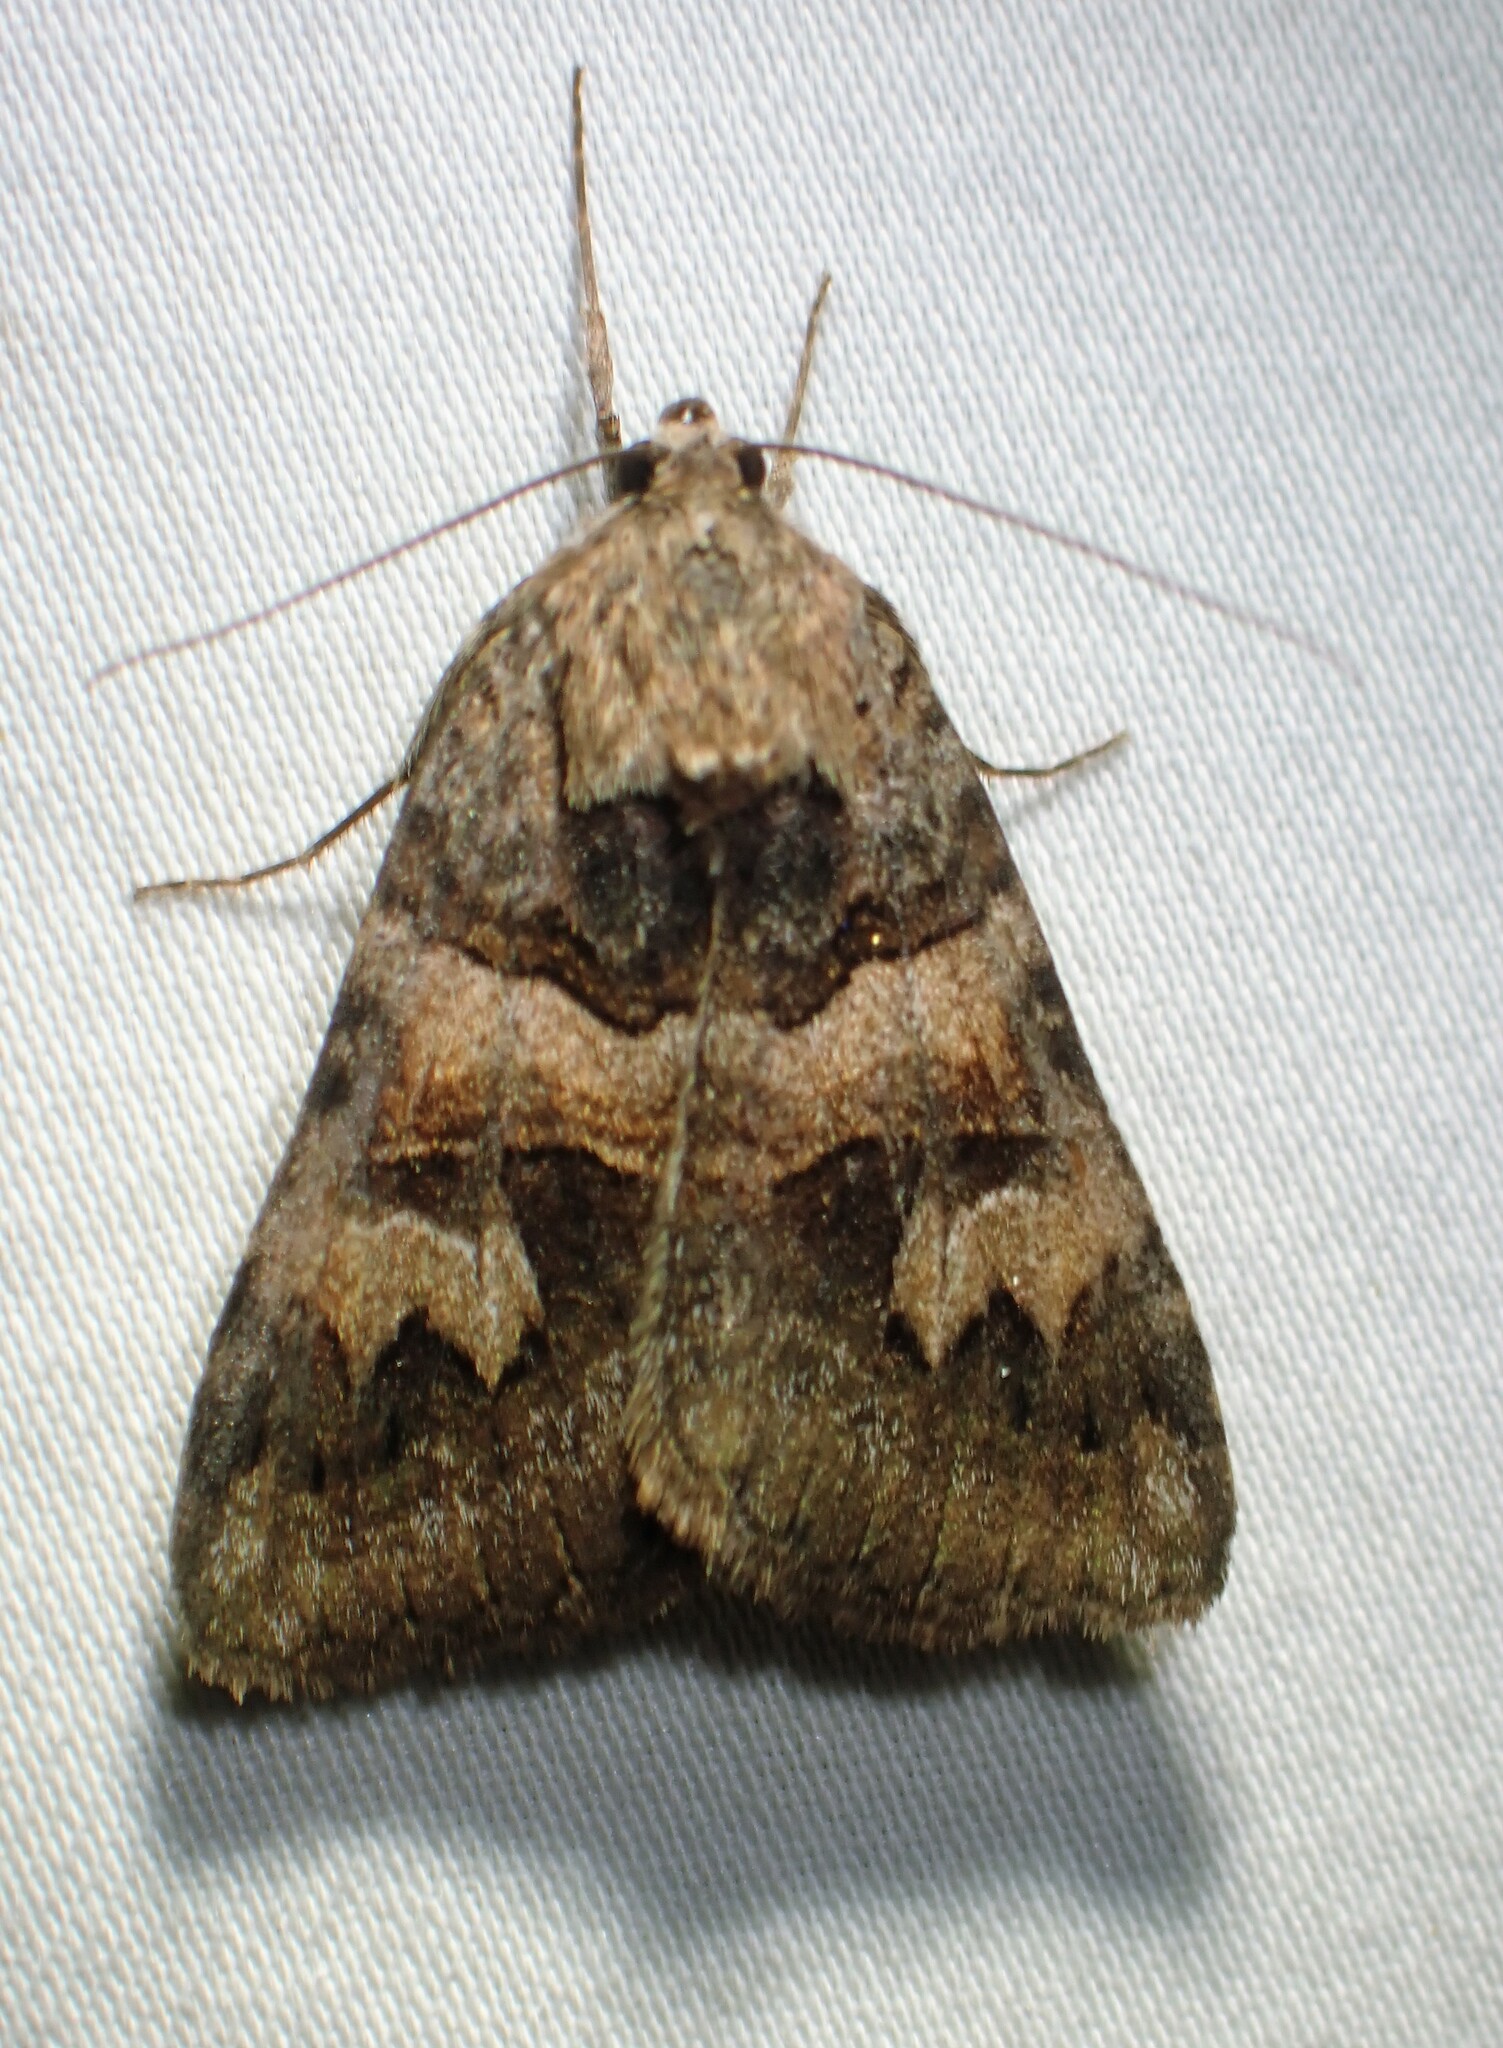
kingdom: Animalia
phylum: Arthropoda
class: Insecta
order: Lepidoptera
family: Erebidae
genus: Drasteria
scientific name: Drasteria adumbrata
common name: Shadowy arches
